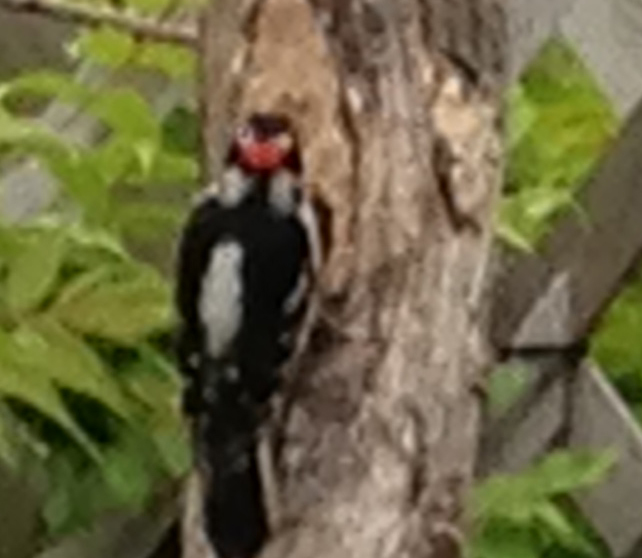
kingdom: Animalia
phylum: Chordata
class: Aves
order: Piciformes
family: Picidae
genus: Dryobates
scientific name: Dryobates pubescens
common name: Downy woodpecker
